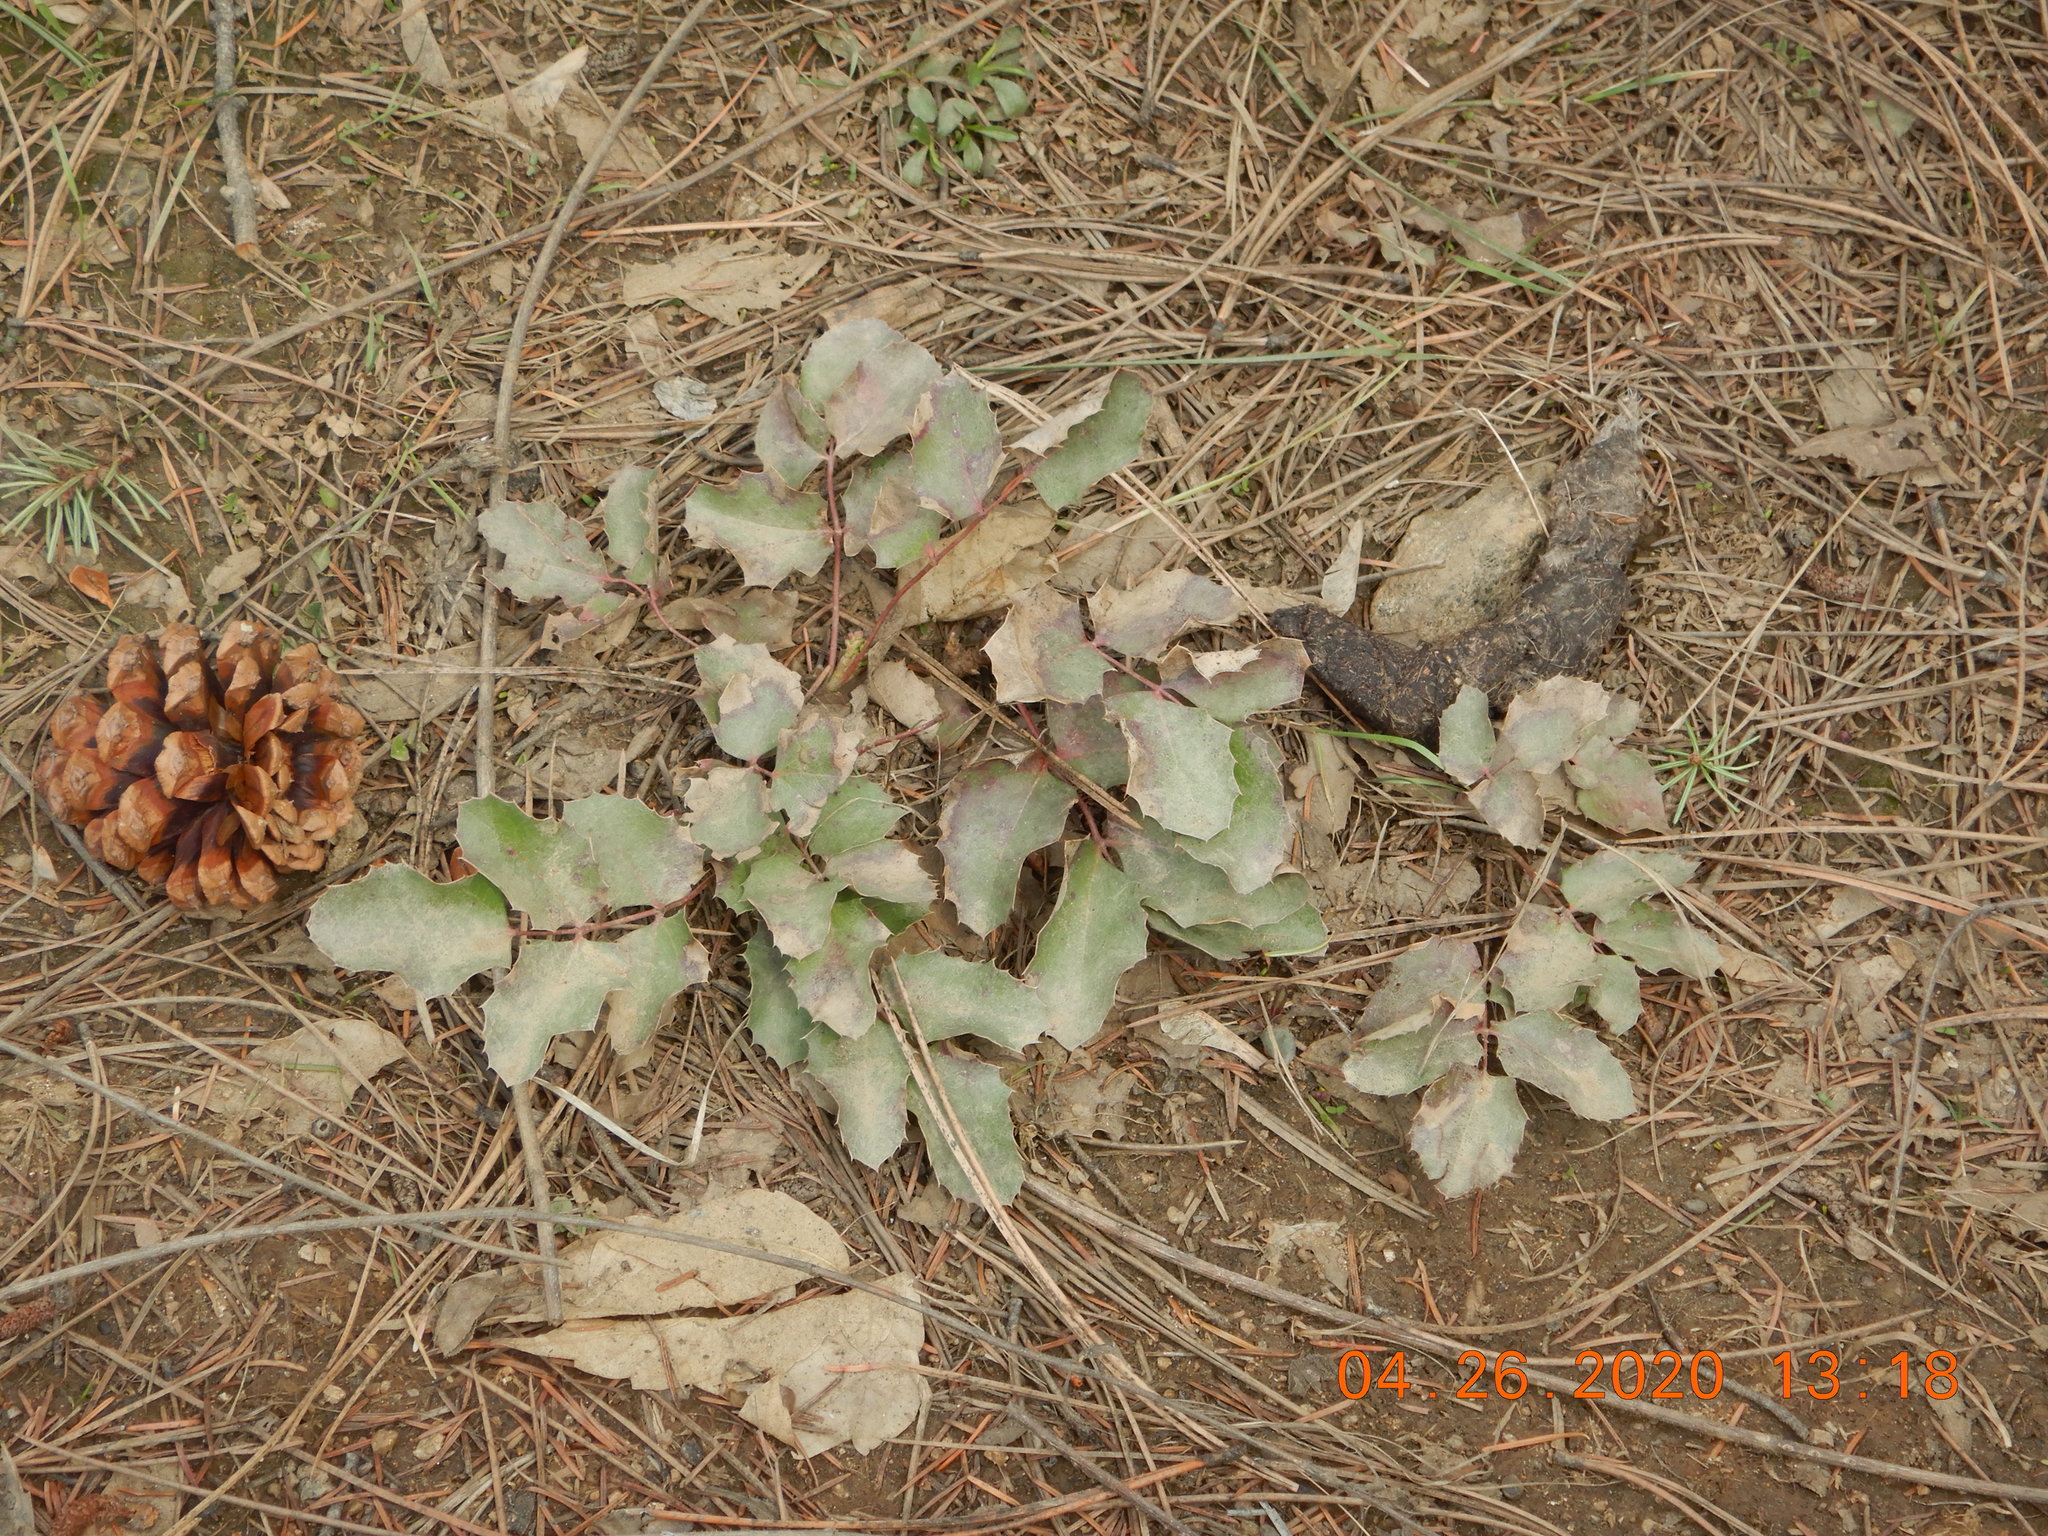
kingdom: Plantae
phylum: Tracheophyta
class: Magnoliopsida
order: Ranunculales
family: Berberidaceae
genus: Mahonia
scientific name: Mahonia repens
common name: Creeping oregon-grape
